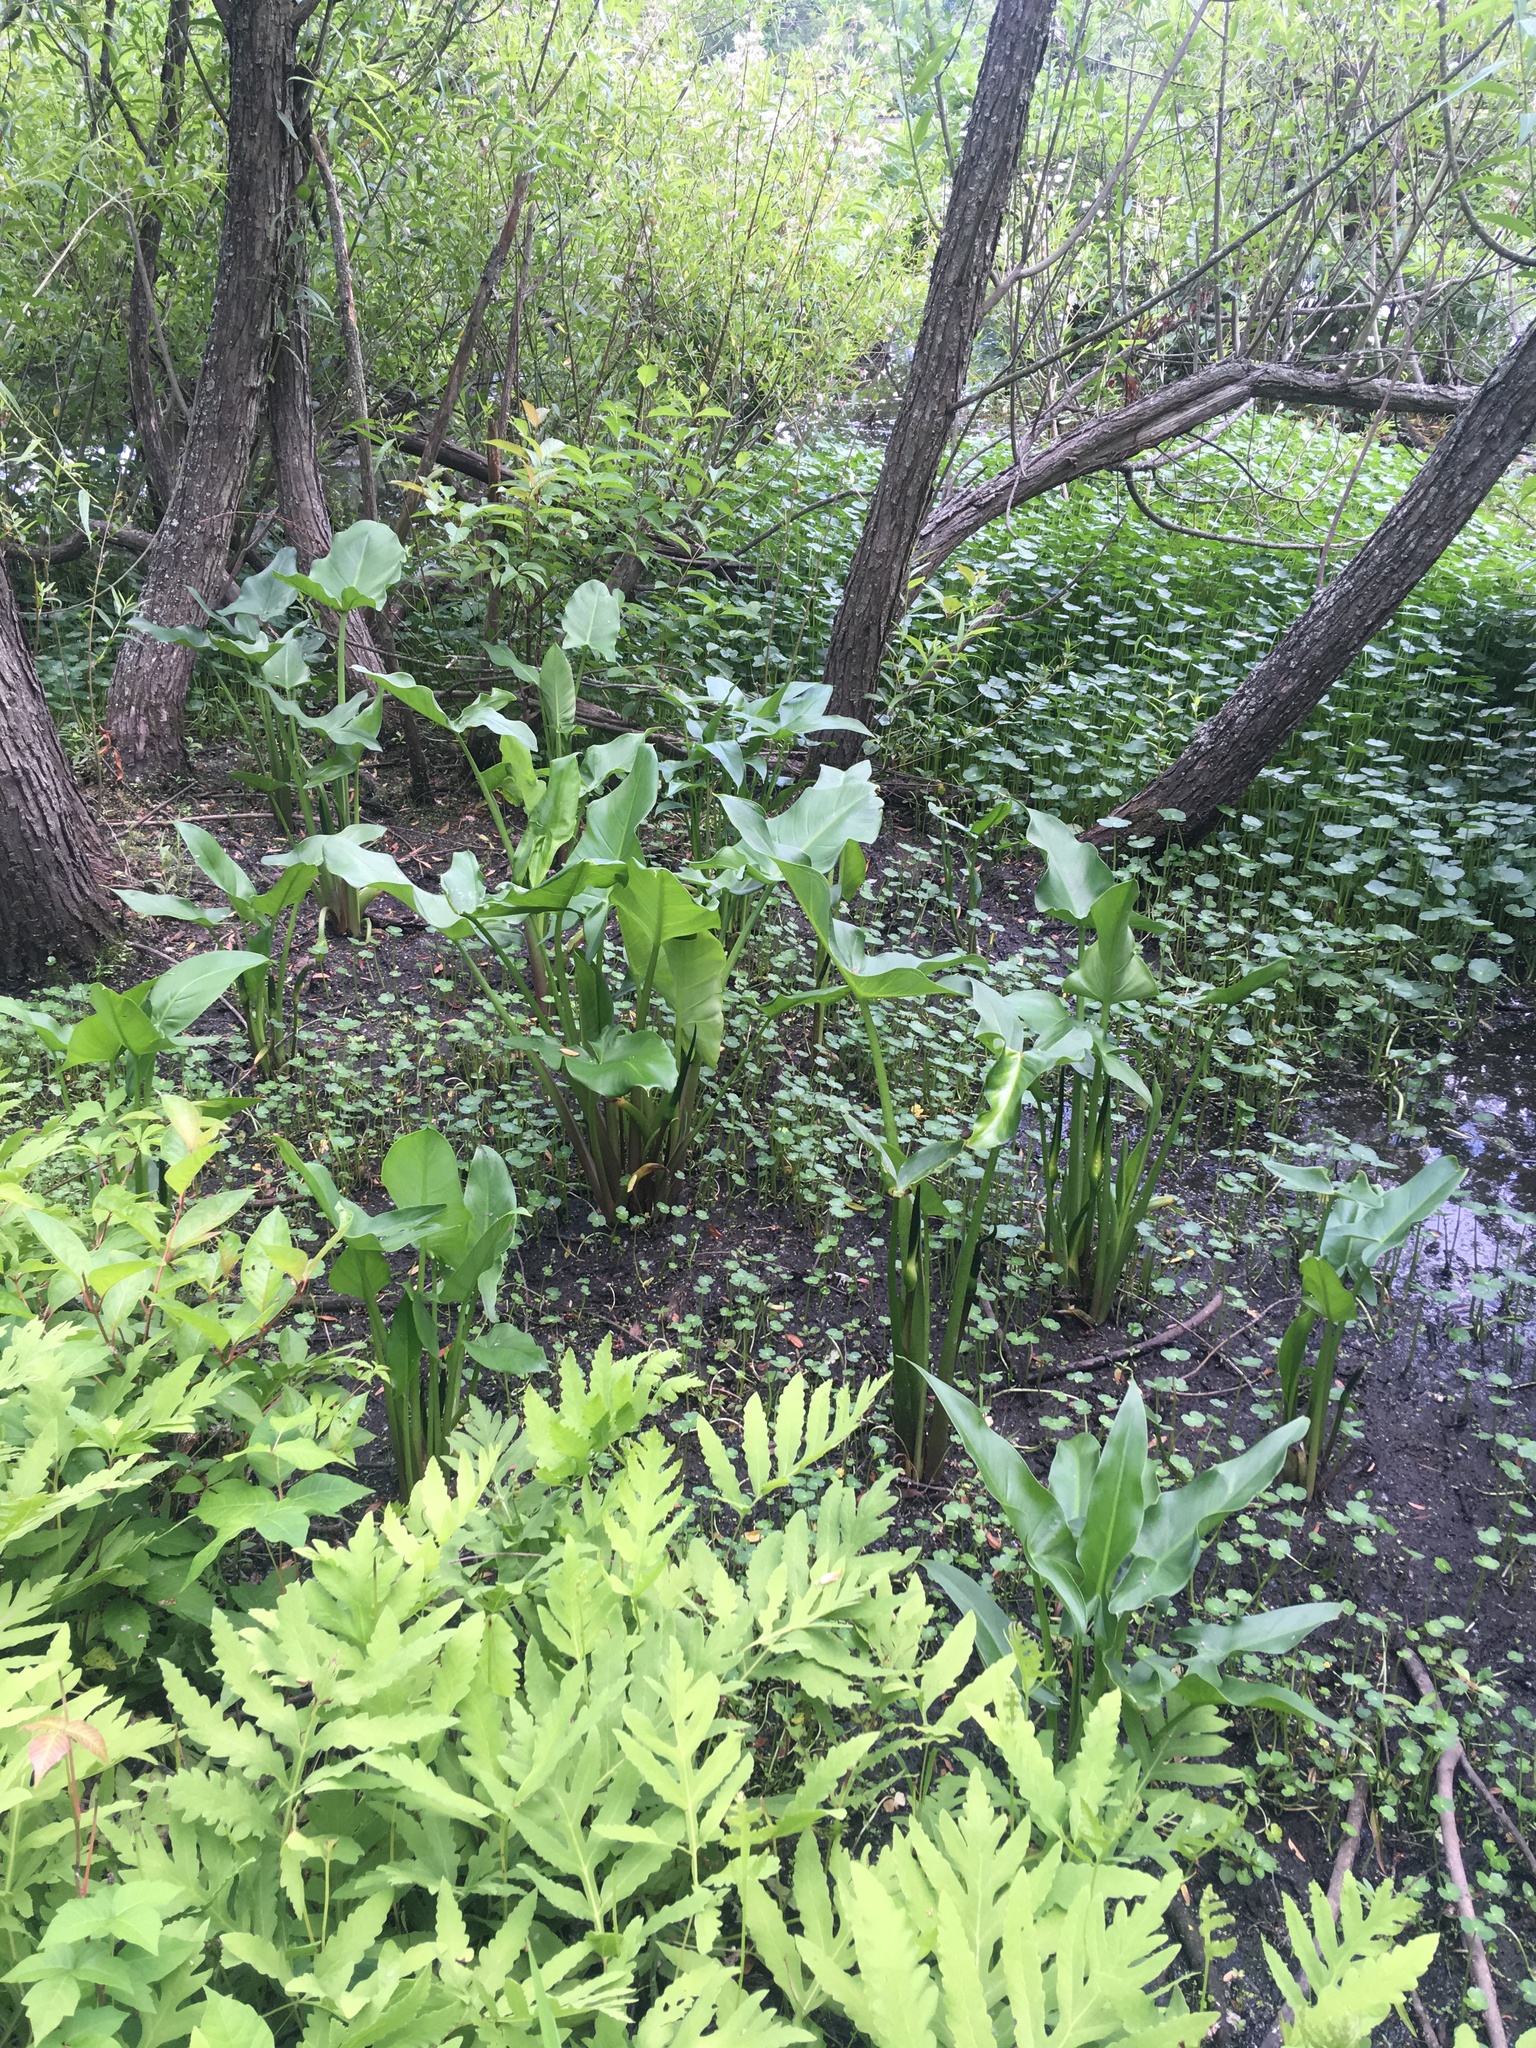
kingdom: Plantae
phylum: Tracheophyta
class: Liliopsida
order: Alismatales
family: Araceae
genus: Peltandra
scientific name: Peltandra virginica
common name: Arrow arum
